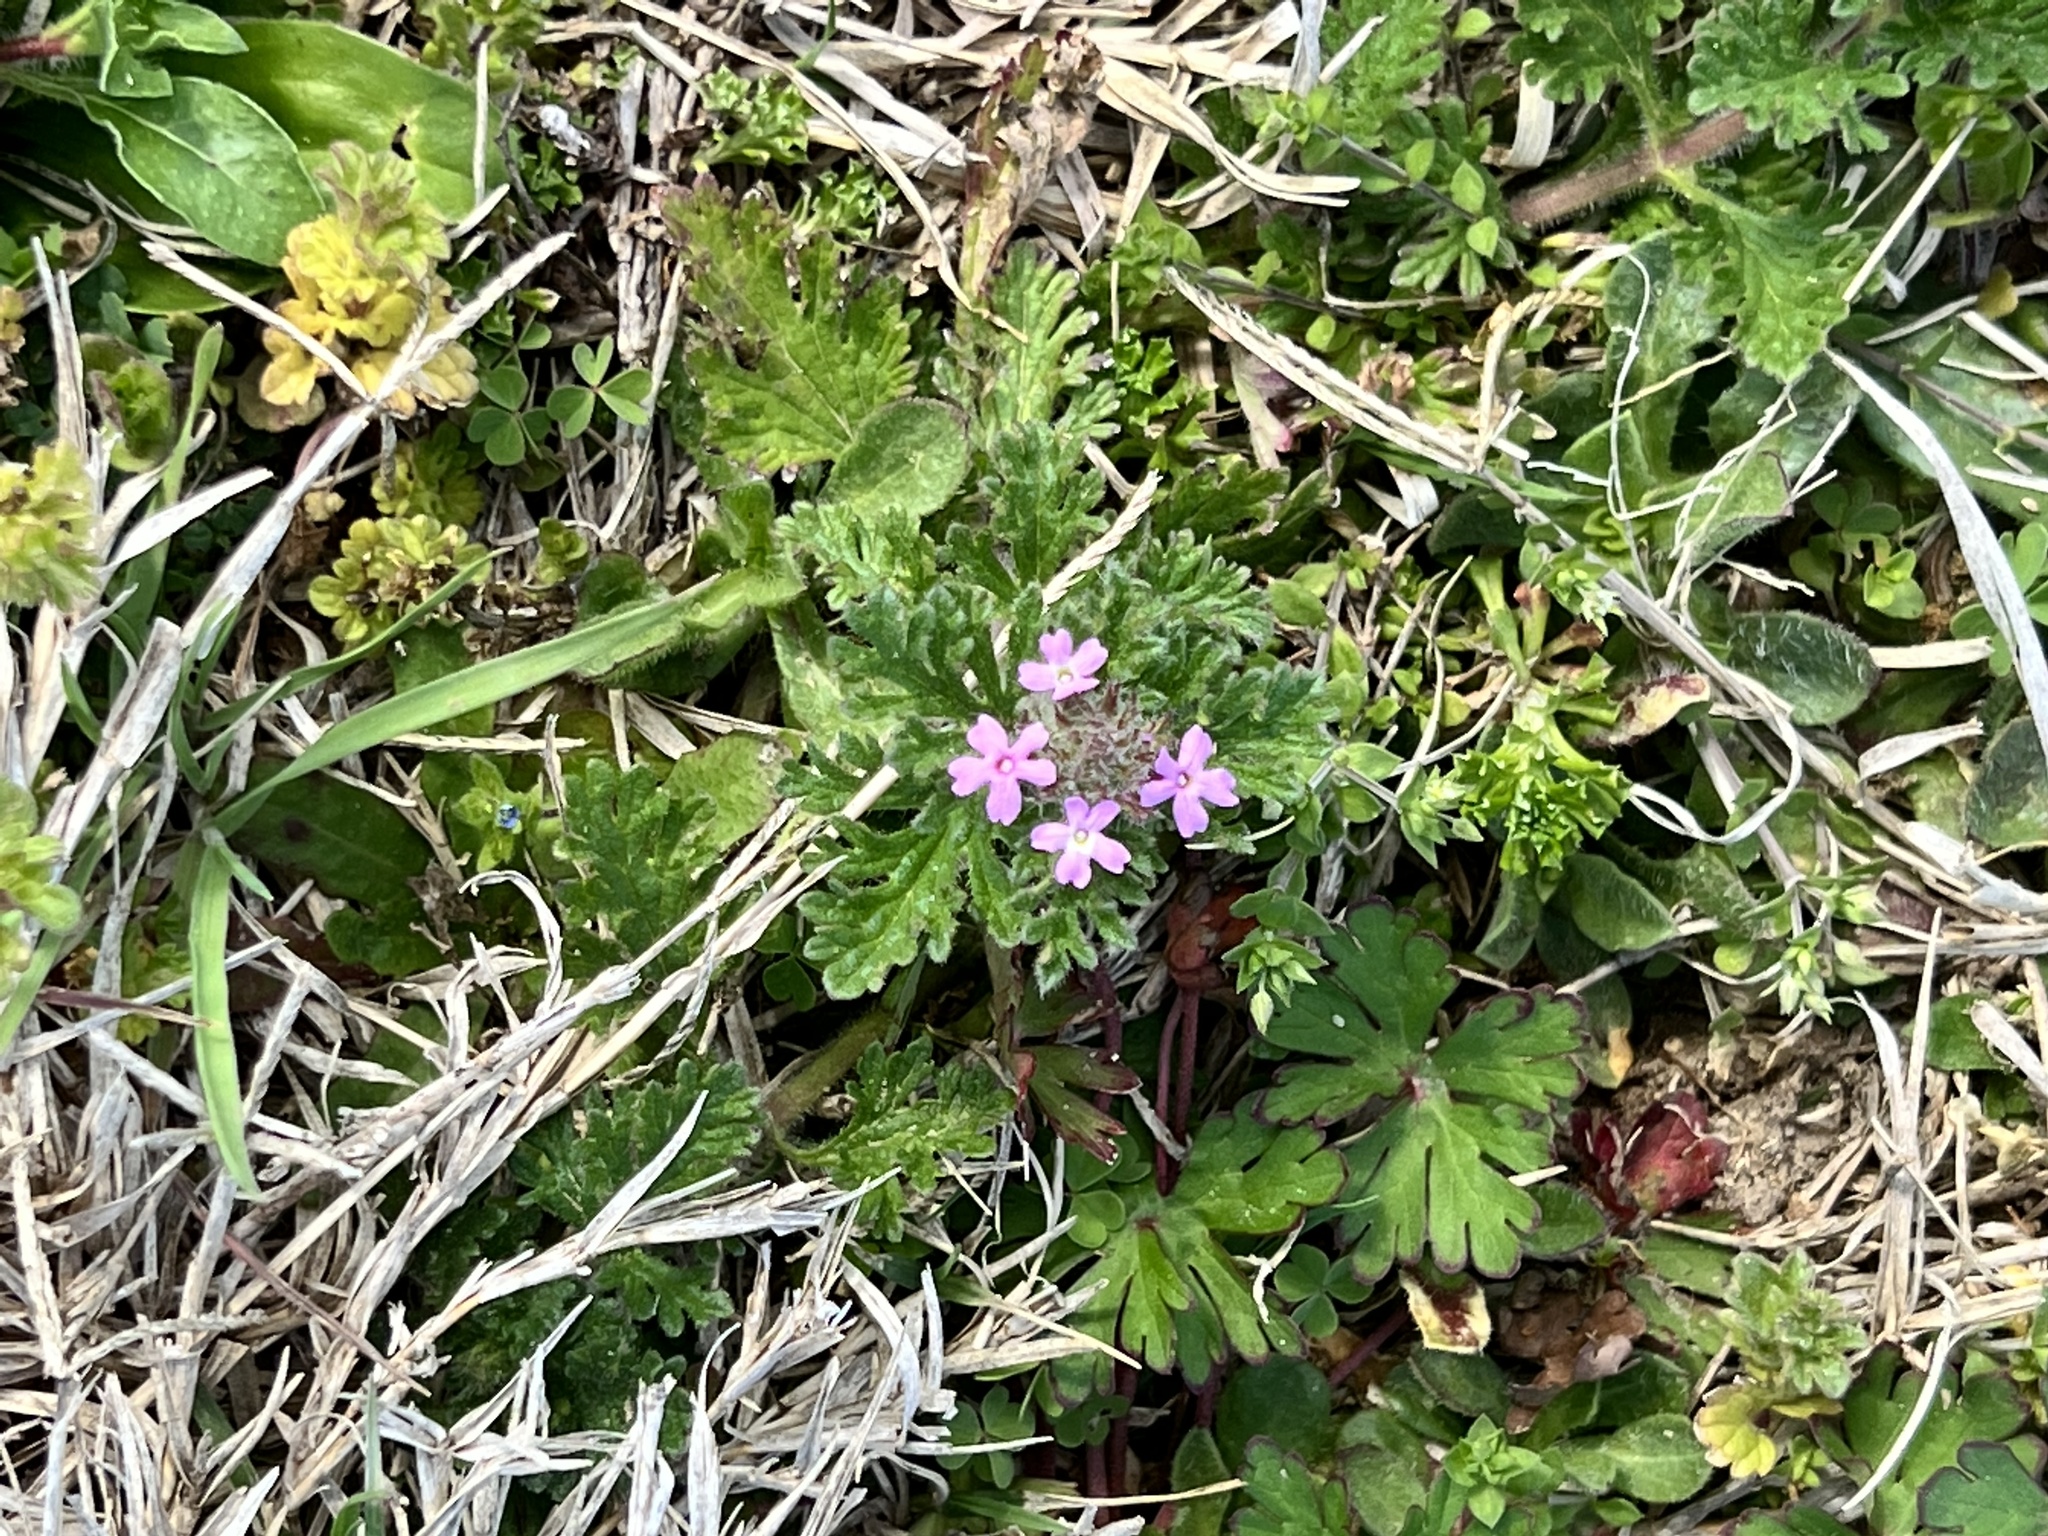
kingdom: Plantae
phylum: Tracheophyta
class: Magnoliopsida
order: Lamiales
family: Verbenaceae
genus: Verbena
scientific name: Verbena pumila
